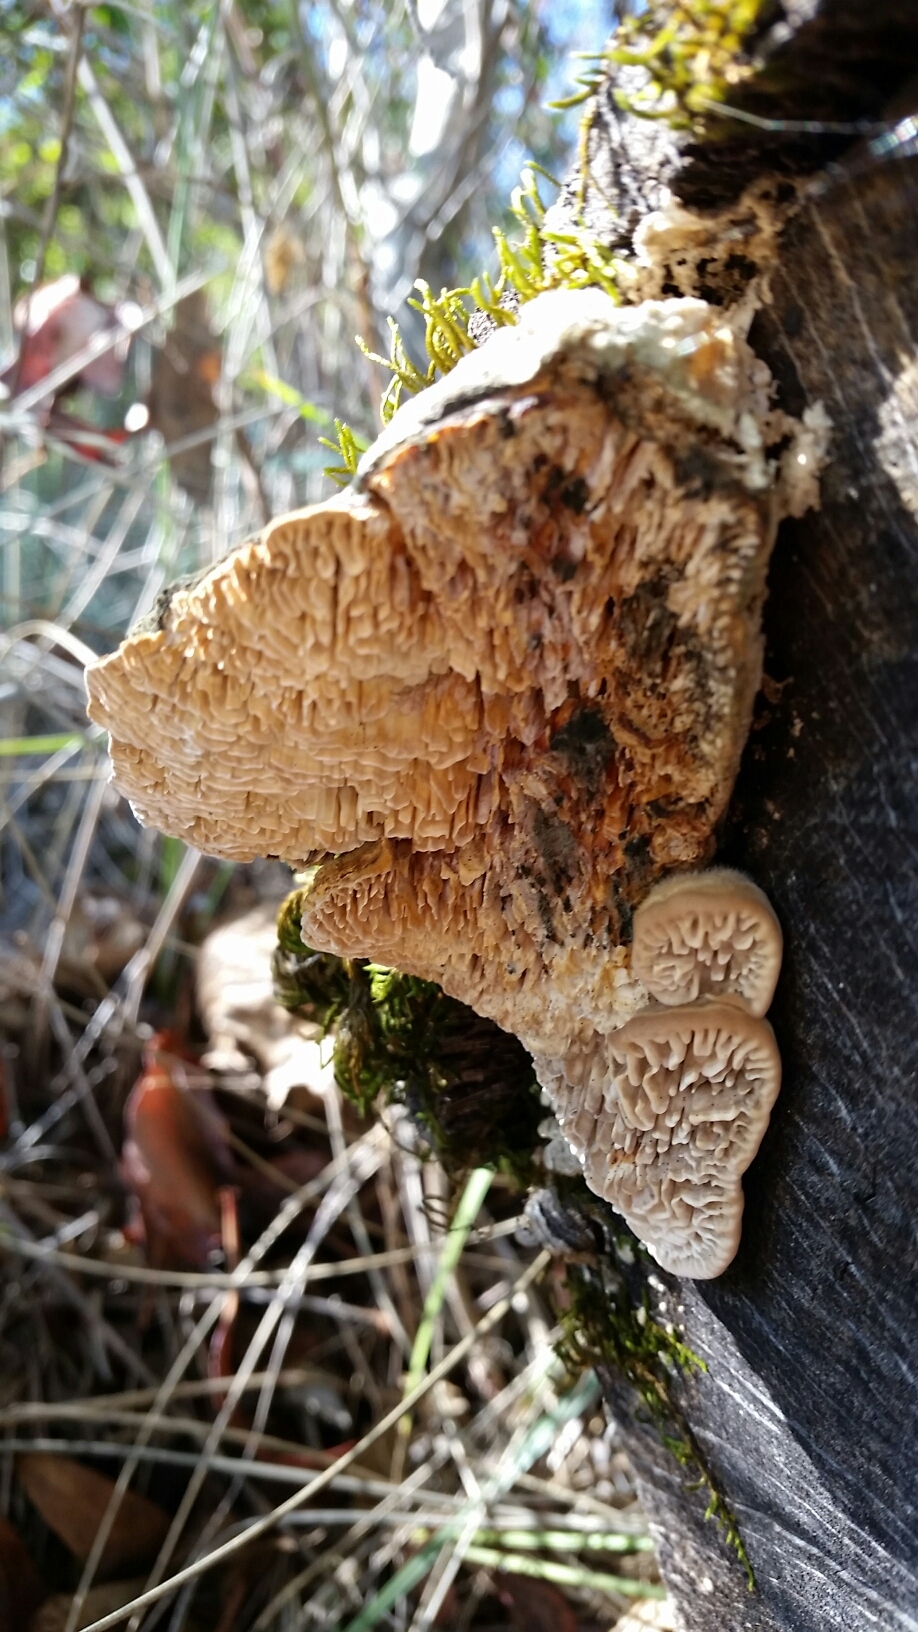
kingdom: Fungi
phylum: Basidiomycota
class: Agaricomycetes
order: Polyporales
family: Polyporaceae
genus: Lenzites
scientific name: Lenzites betulinus
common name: Birch mazegill
